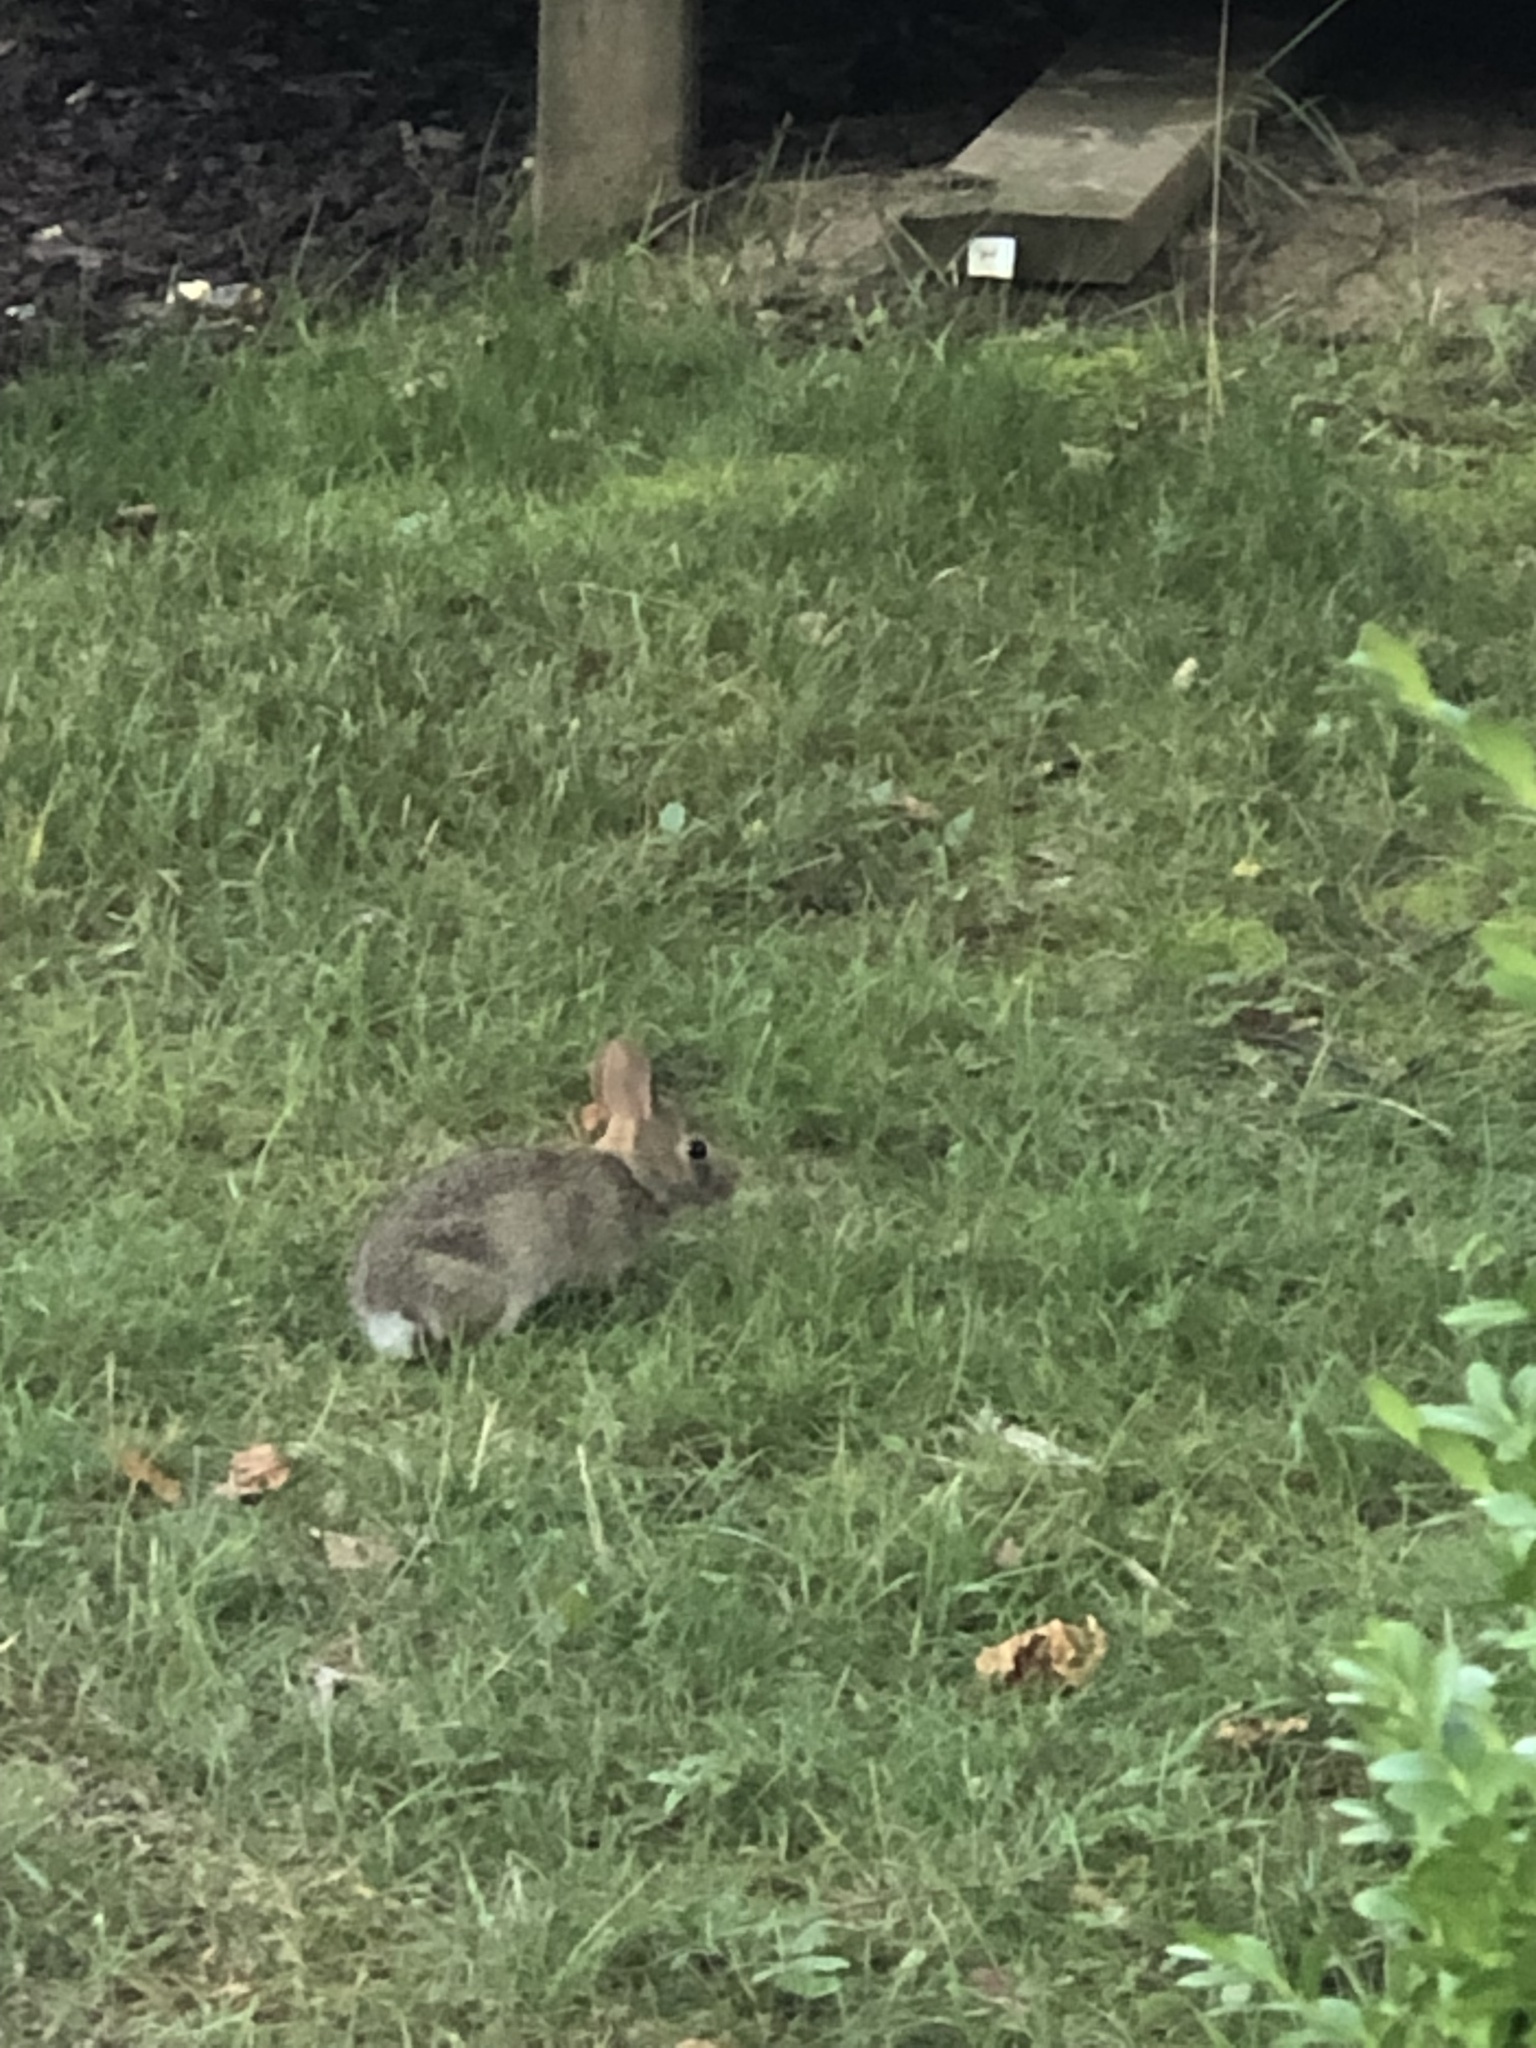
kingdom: Animalia
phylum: Chordata
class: Mammalia
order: Lagomorpha
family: Leporidae
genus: Sylvilagus
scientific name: Sylvilagus floridanus
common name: Eastern cottontail
